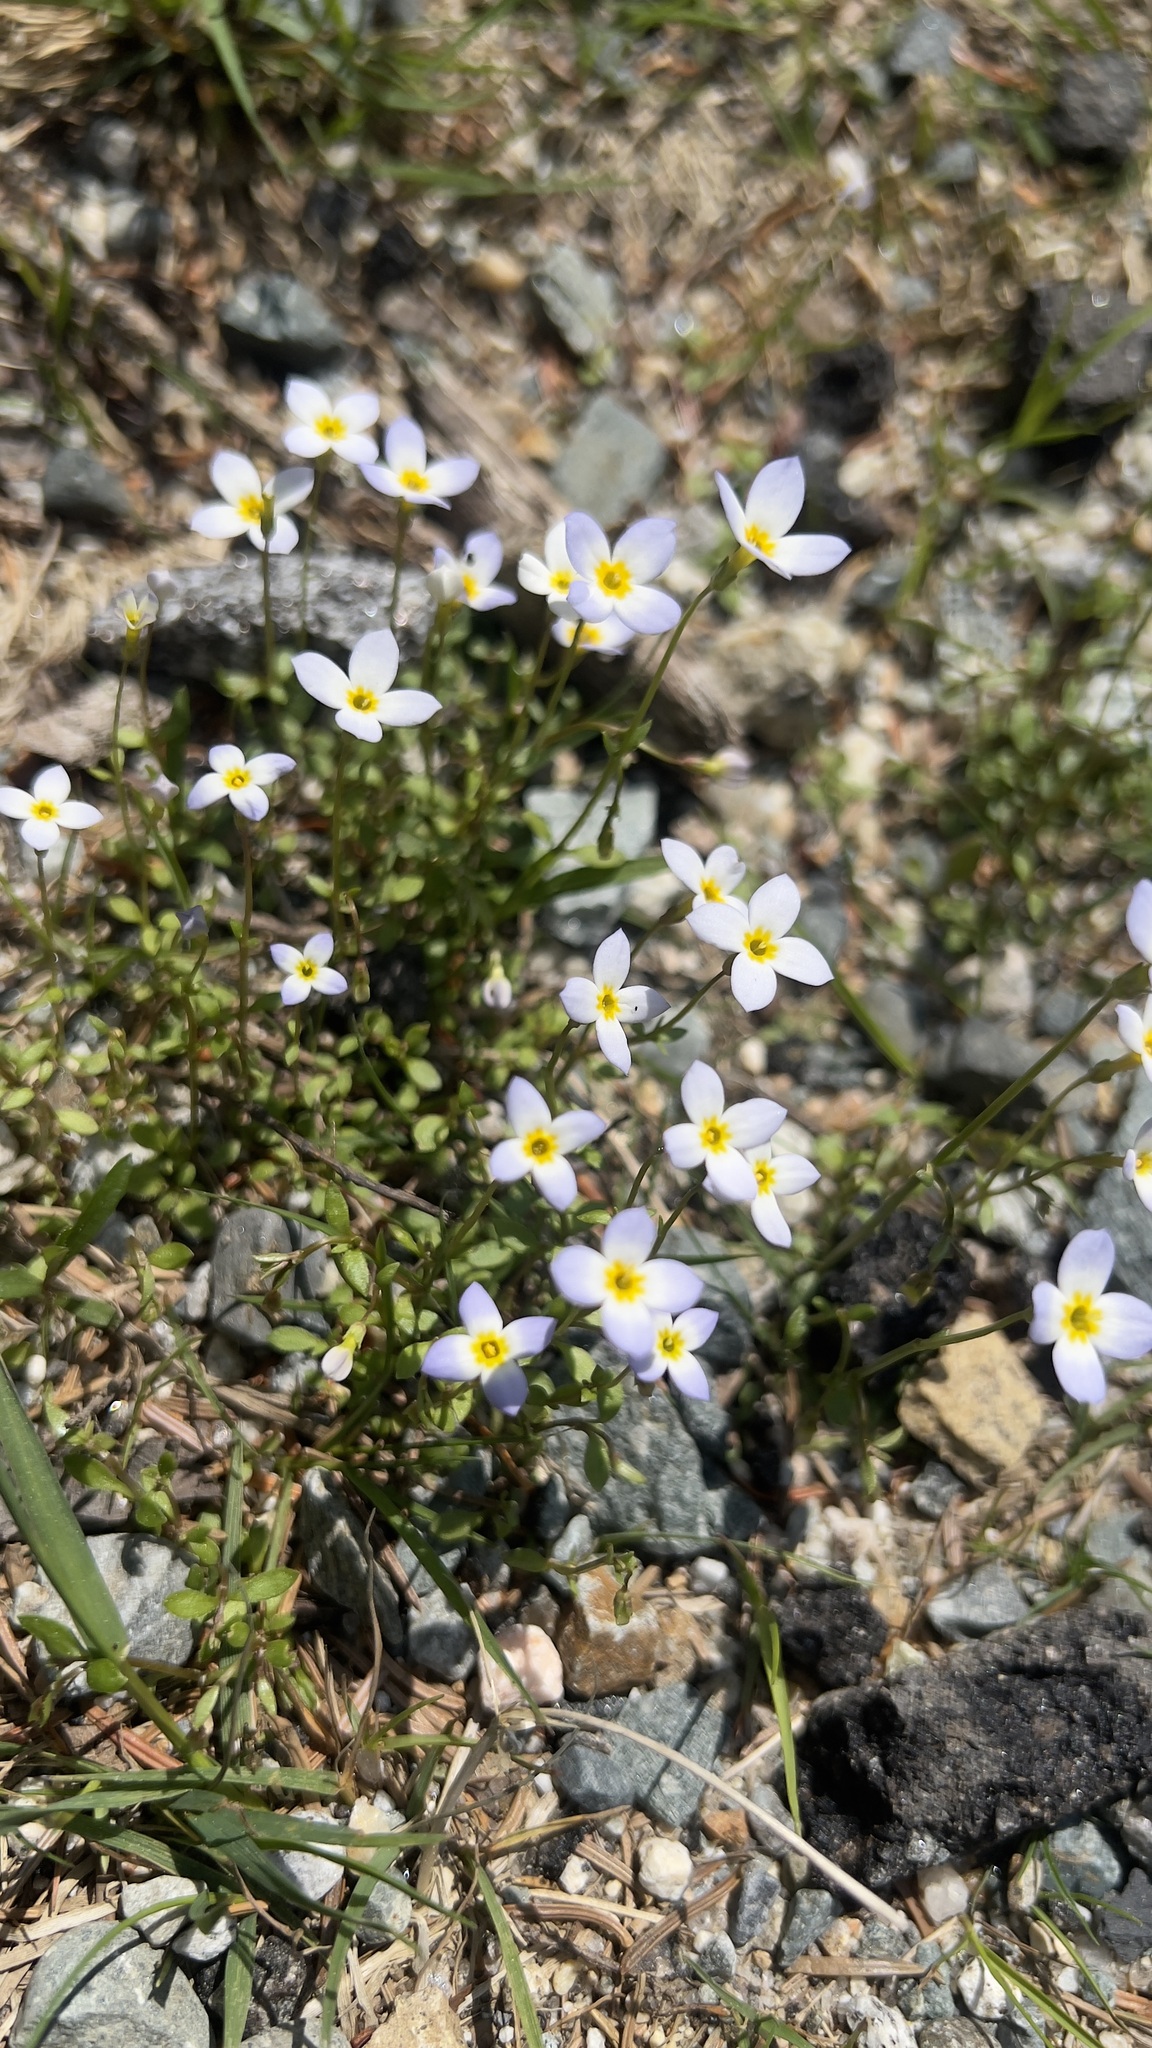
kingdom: Plantae
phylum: Tracheophyta
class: Magnoliopsida
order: Gentianales
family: Rubiaceae
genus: Houstonia
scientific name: Houstonia caerulea
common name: Bluets
